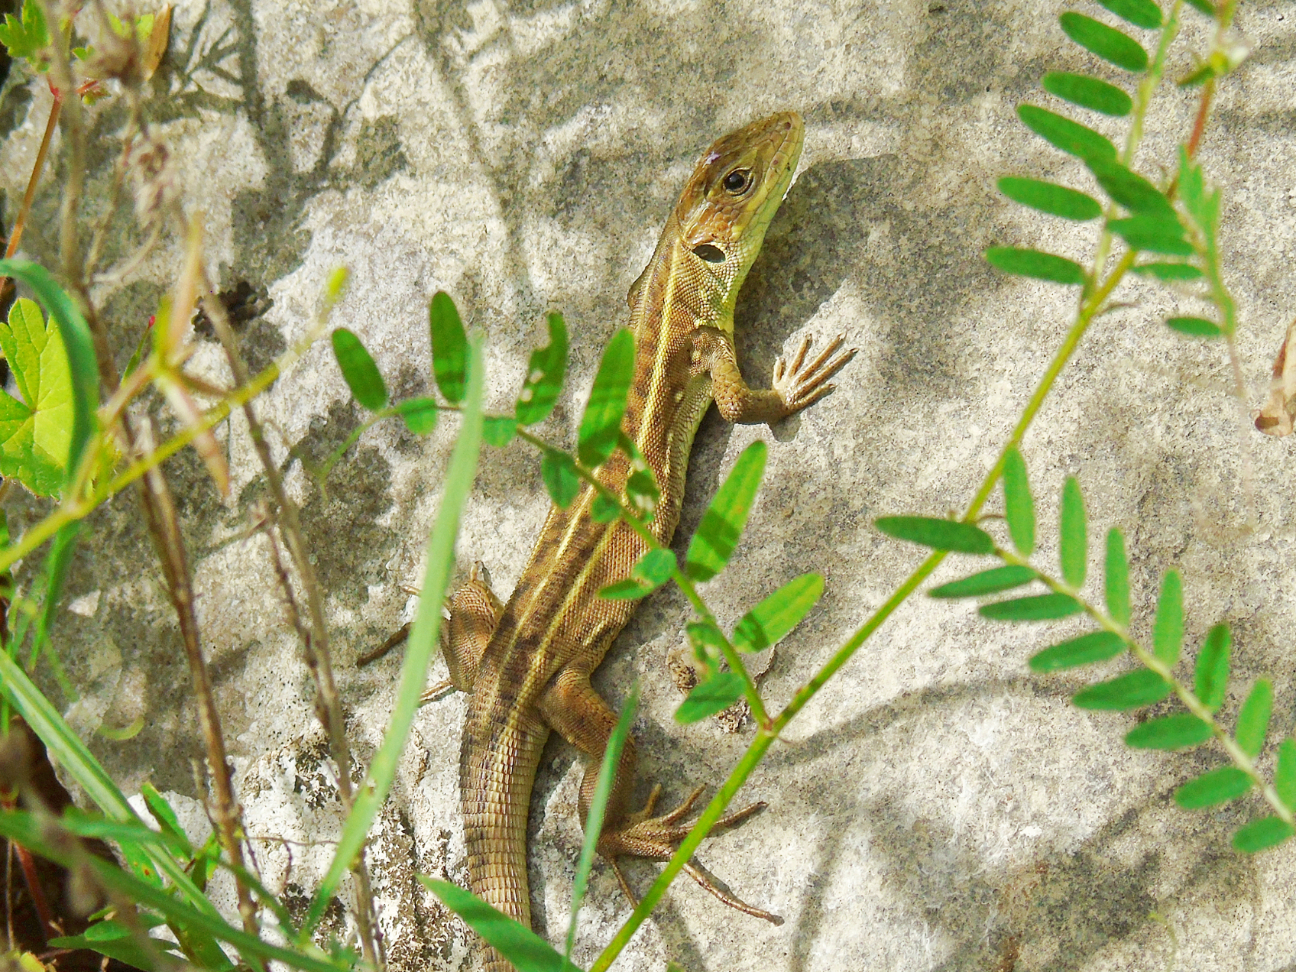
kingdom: Animalia
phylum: Chordata
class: Squamata
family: Lacertidae
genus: Lacerta
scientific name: Lacerta trilineata
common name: Balkan green lizard
